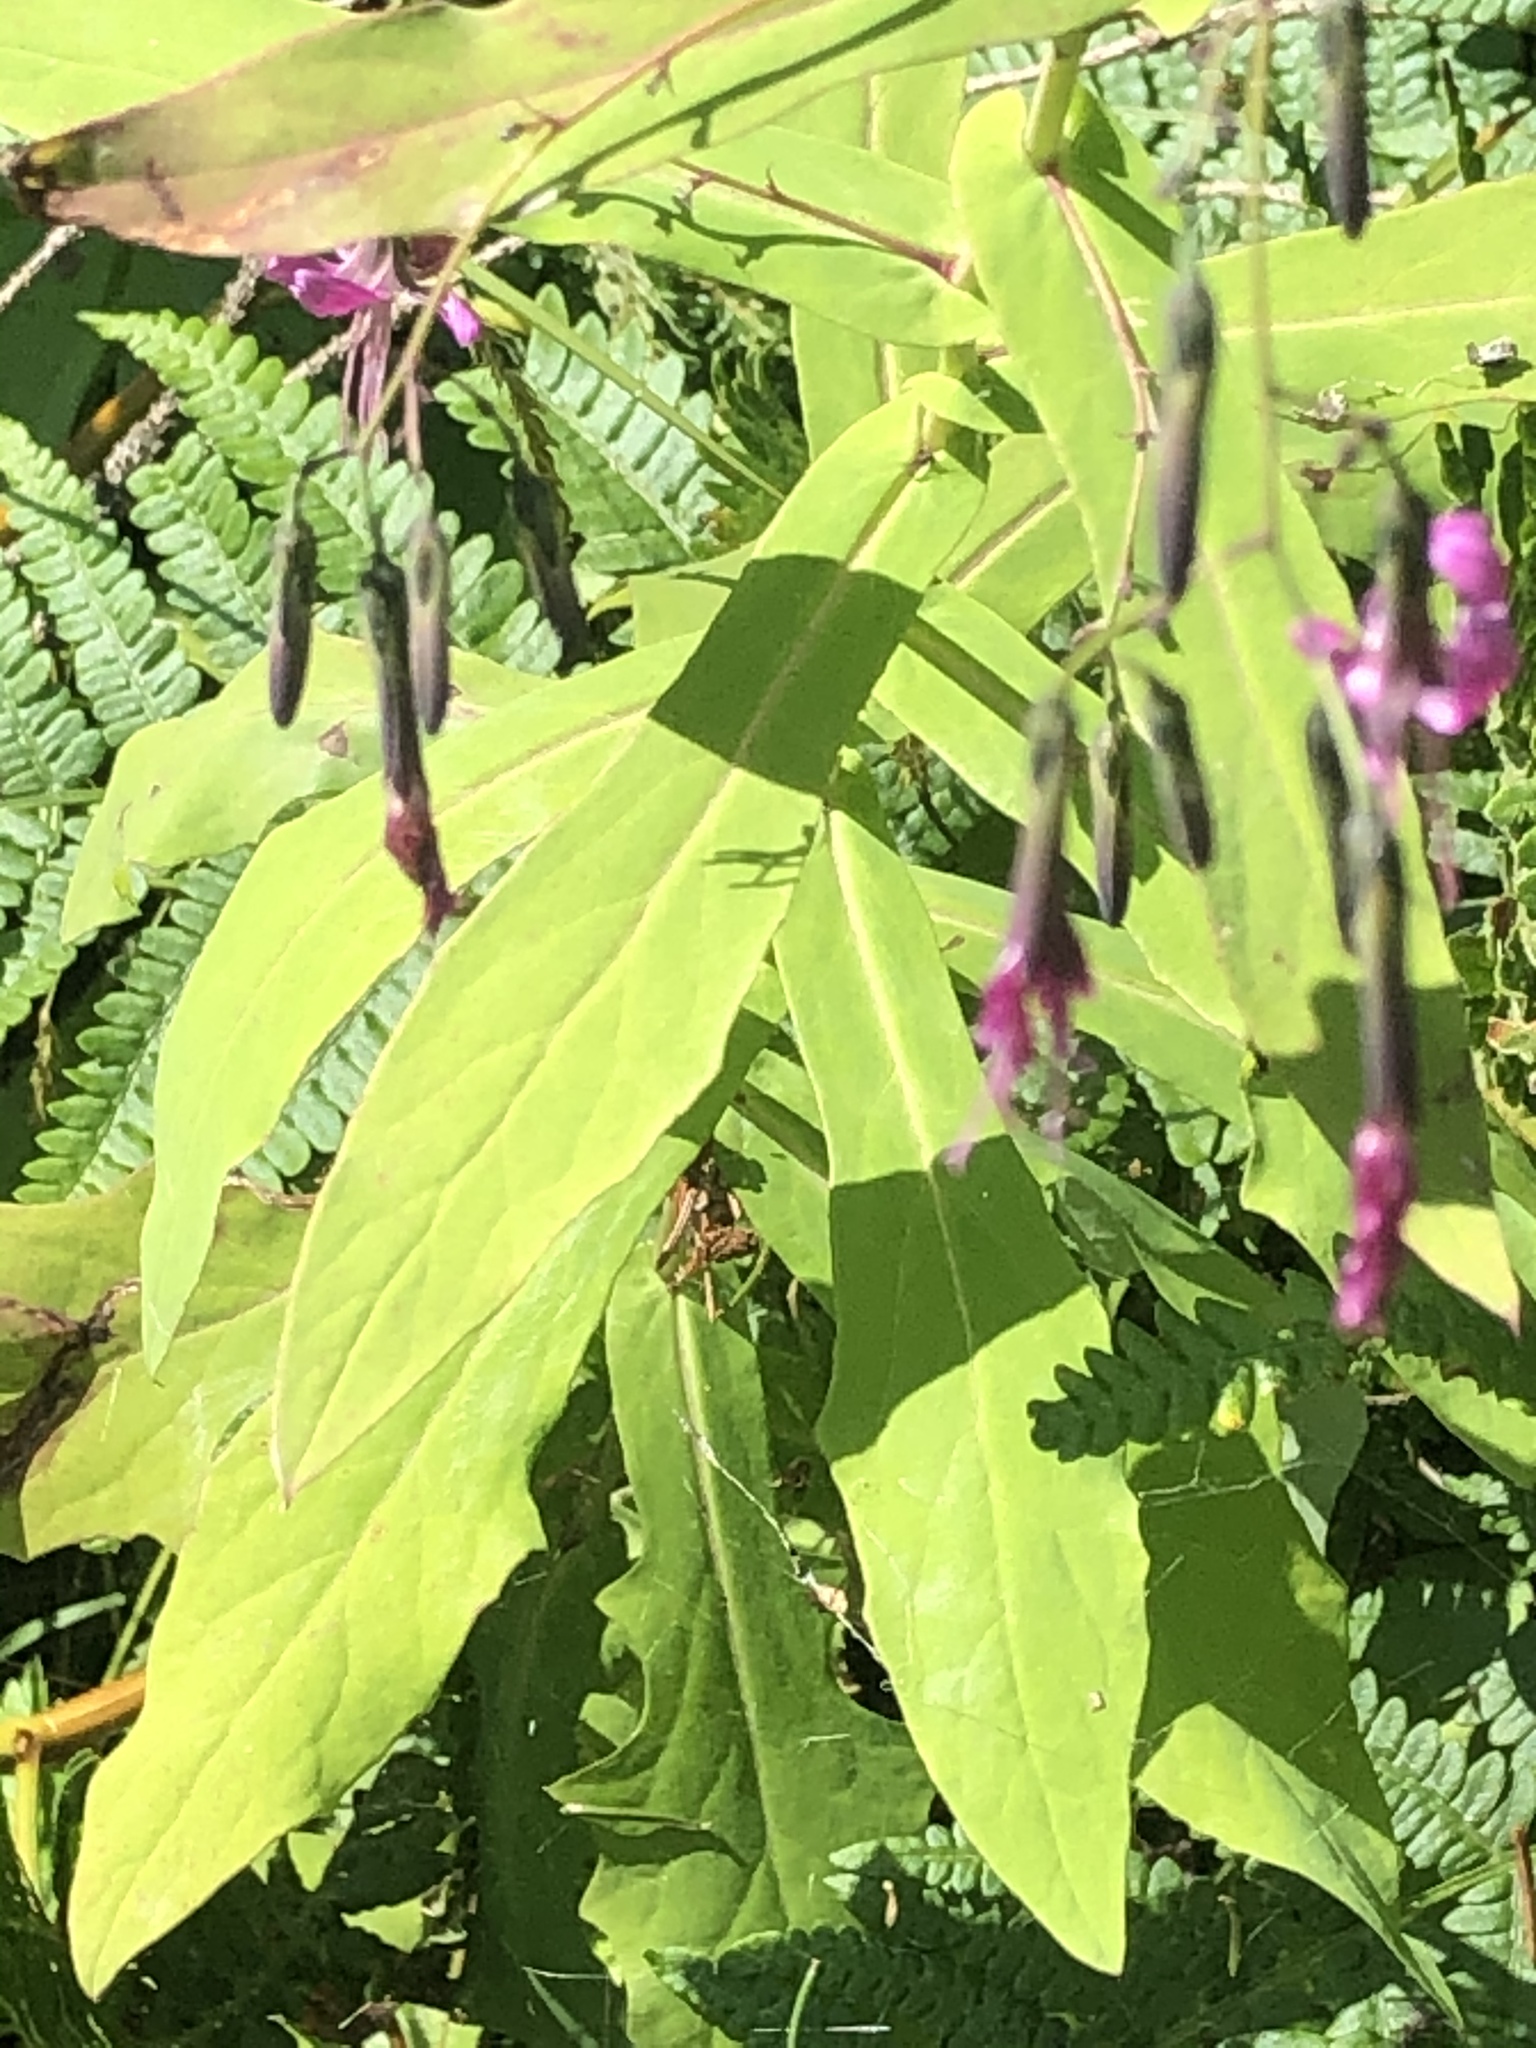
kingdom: Plantae
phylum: Tracheophyta
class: Magnoliopsida
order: Asterales
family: Asteraceae
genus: Prenanthes
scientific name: Prenanthes purpurea
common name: Purple lettuce
